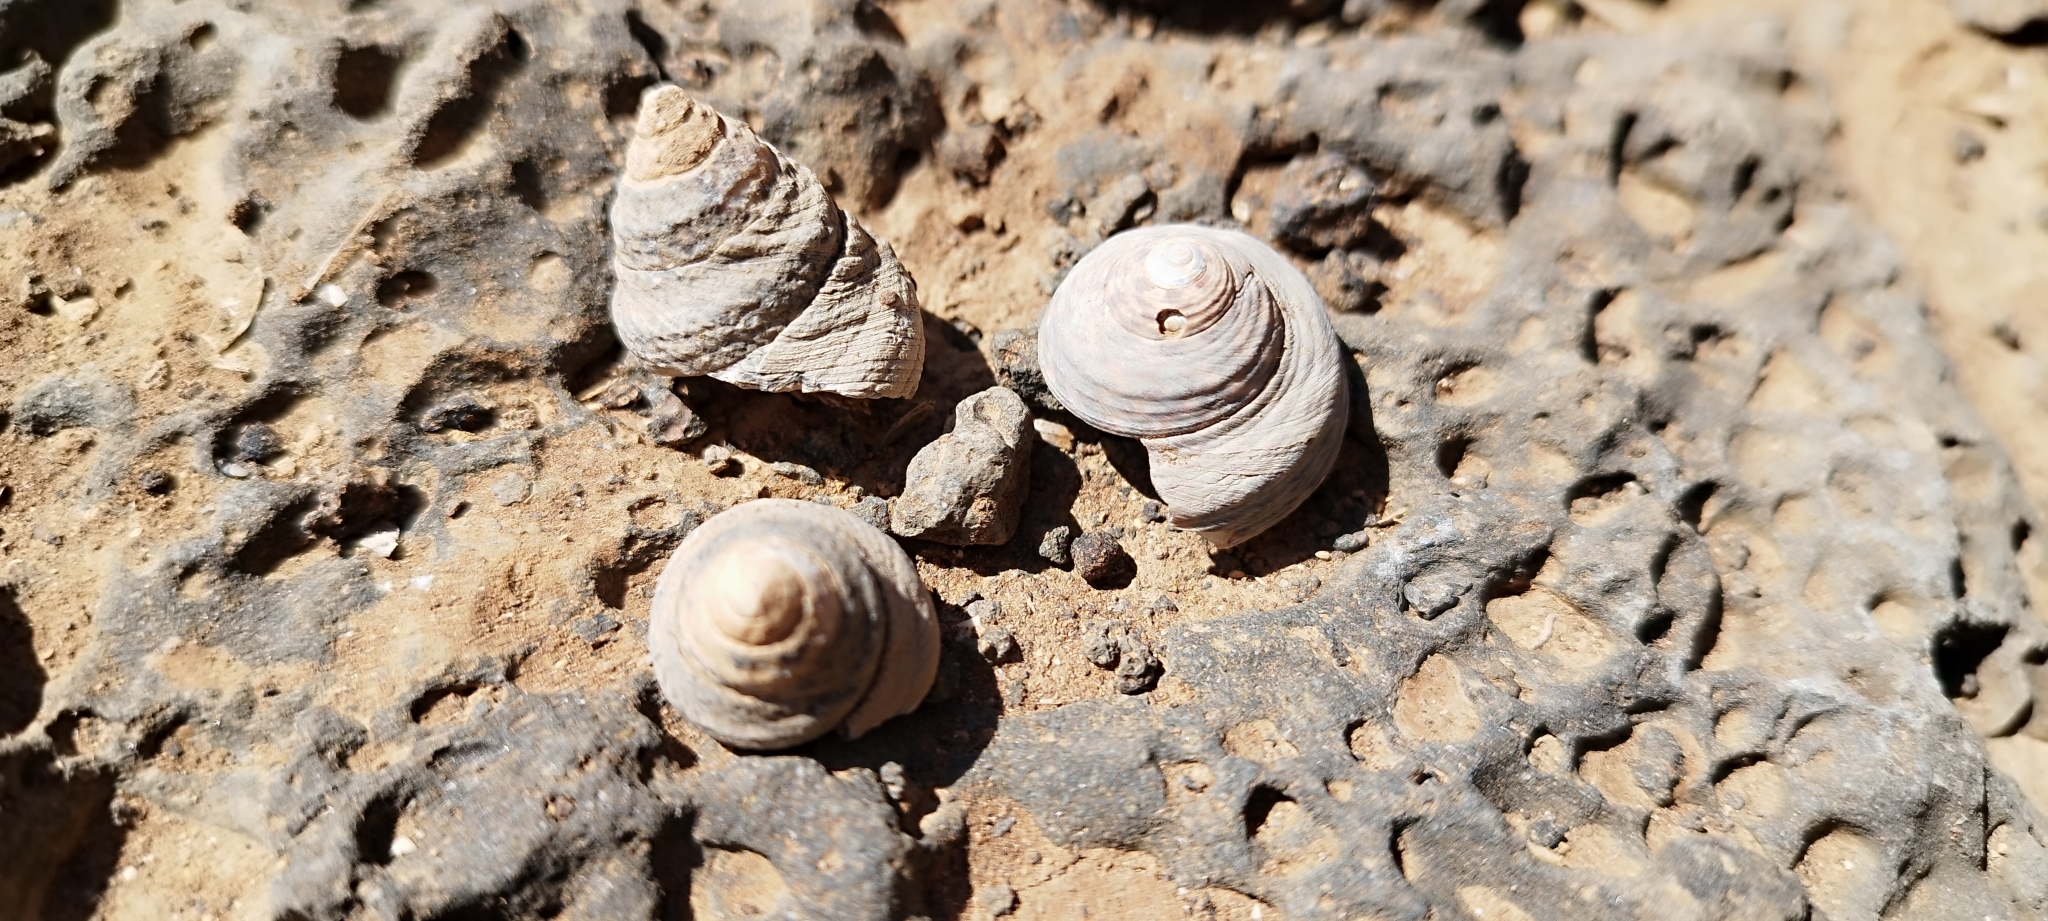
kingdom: Animalia
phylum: Mollusca
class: Gastropoda
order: Trochida
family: Trochidae
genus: Phorcus
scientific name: Phorcus atratus
